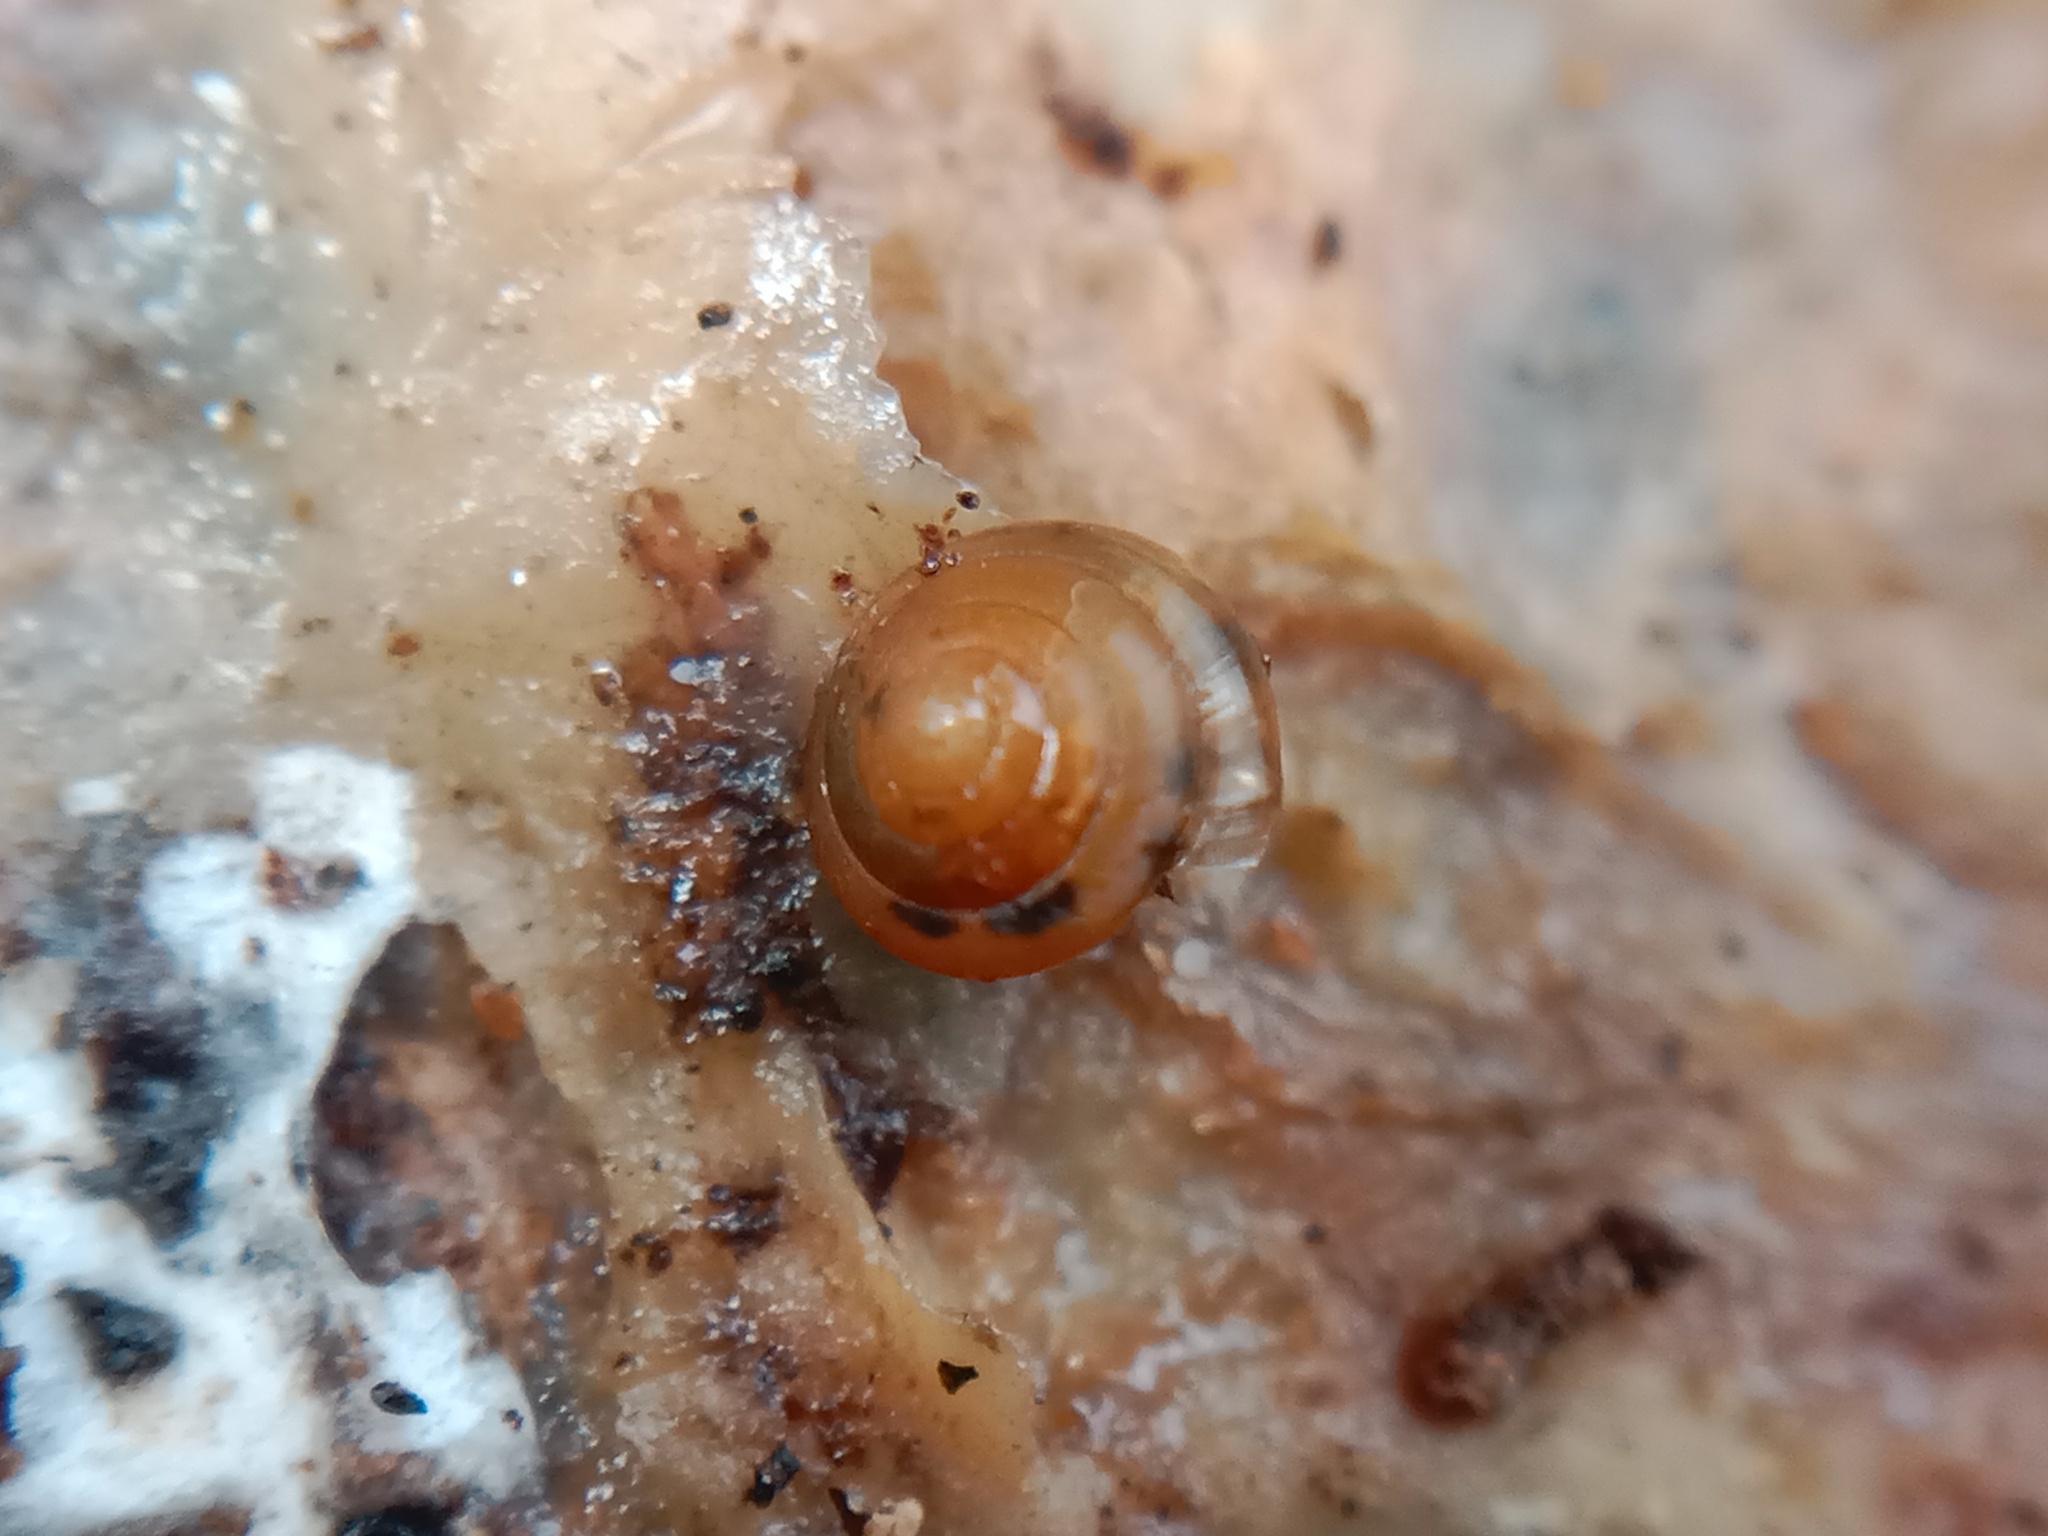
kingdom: Animalia
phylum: Mollusca
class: Gastropoda
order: Stylommatophora
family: Euconulidae
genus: Euconulus
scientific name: Euconulus fulvus
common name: Tawny glass snail
